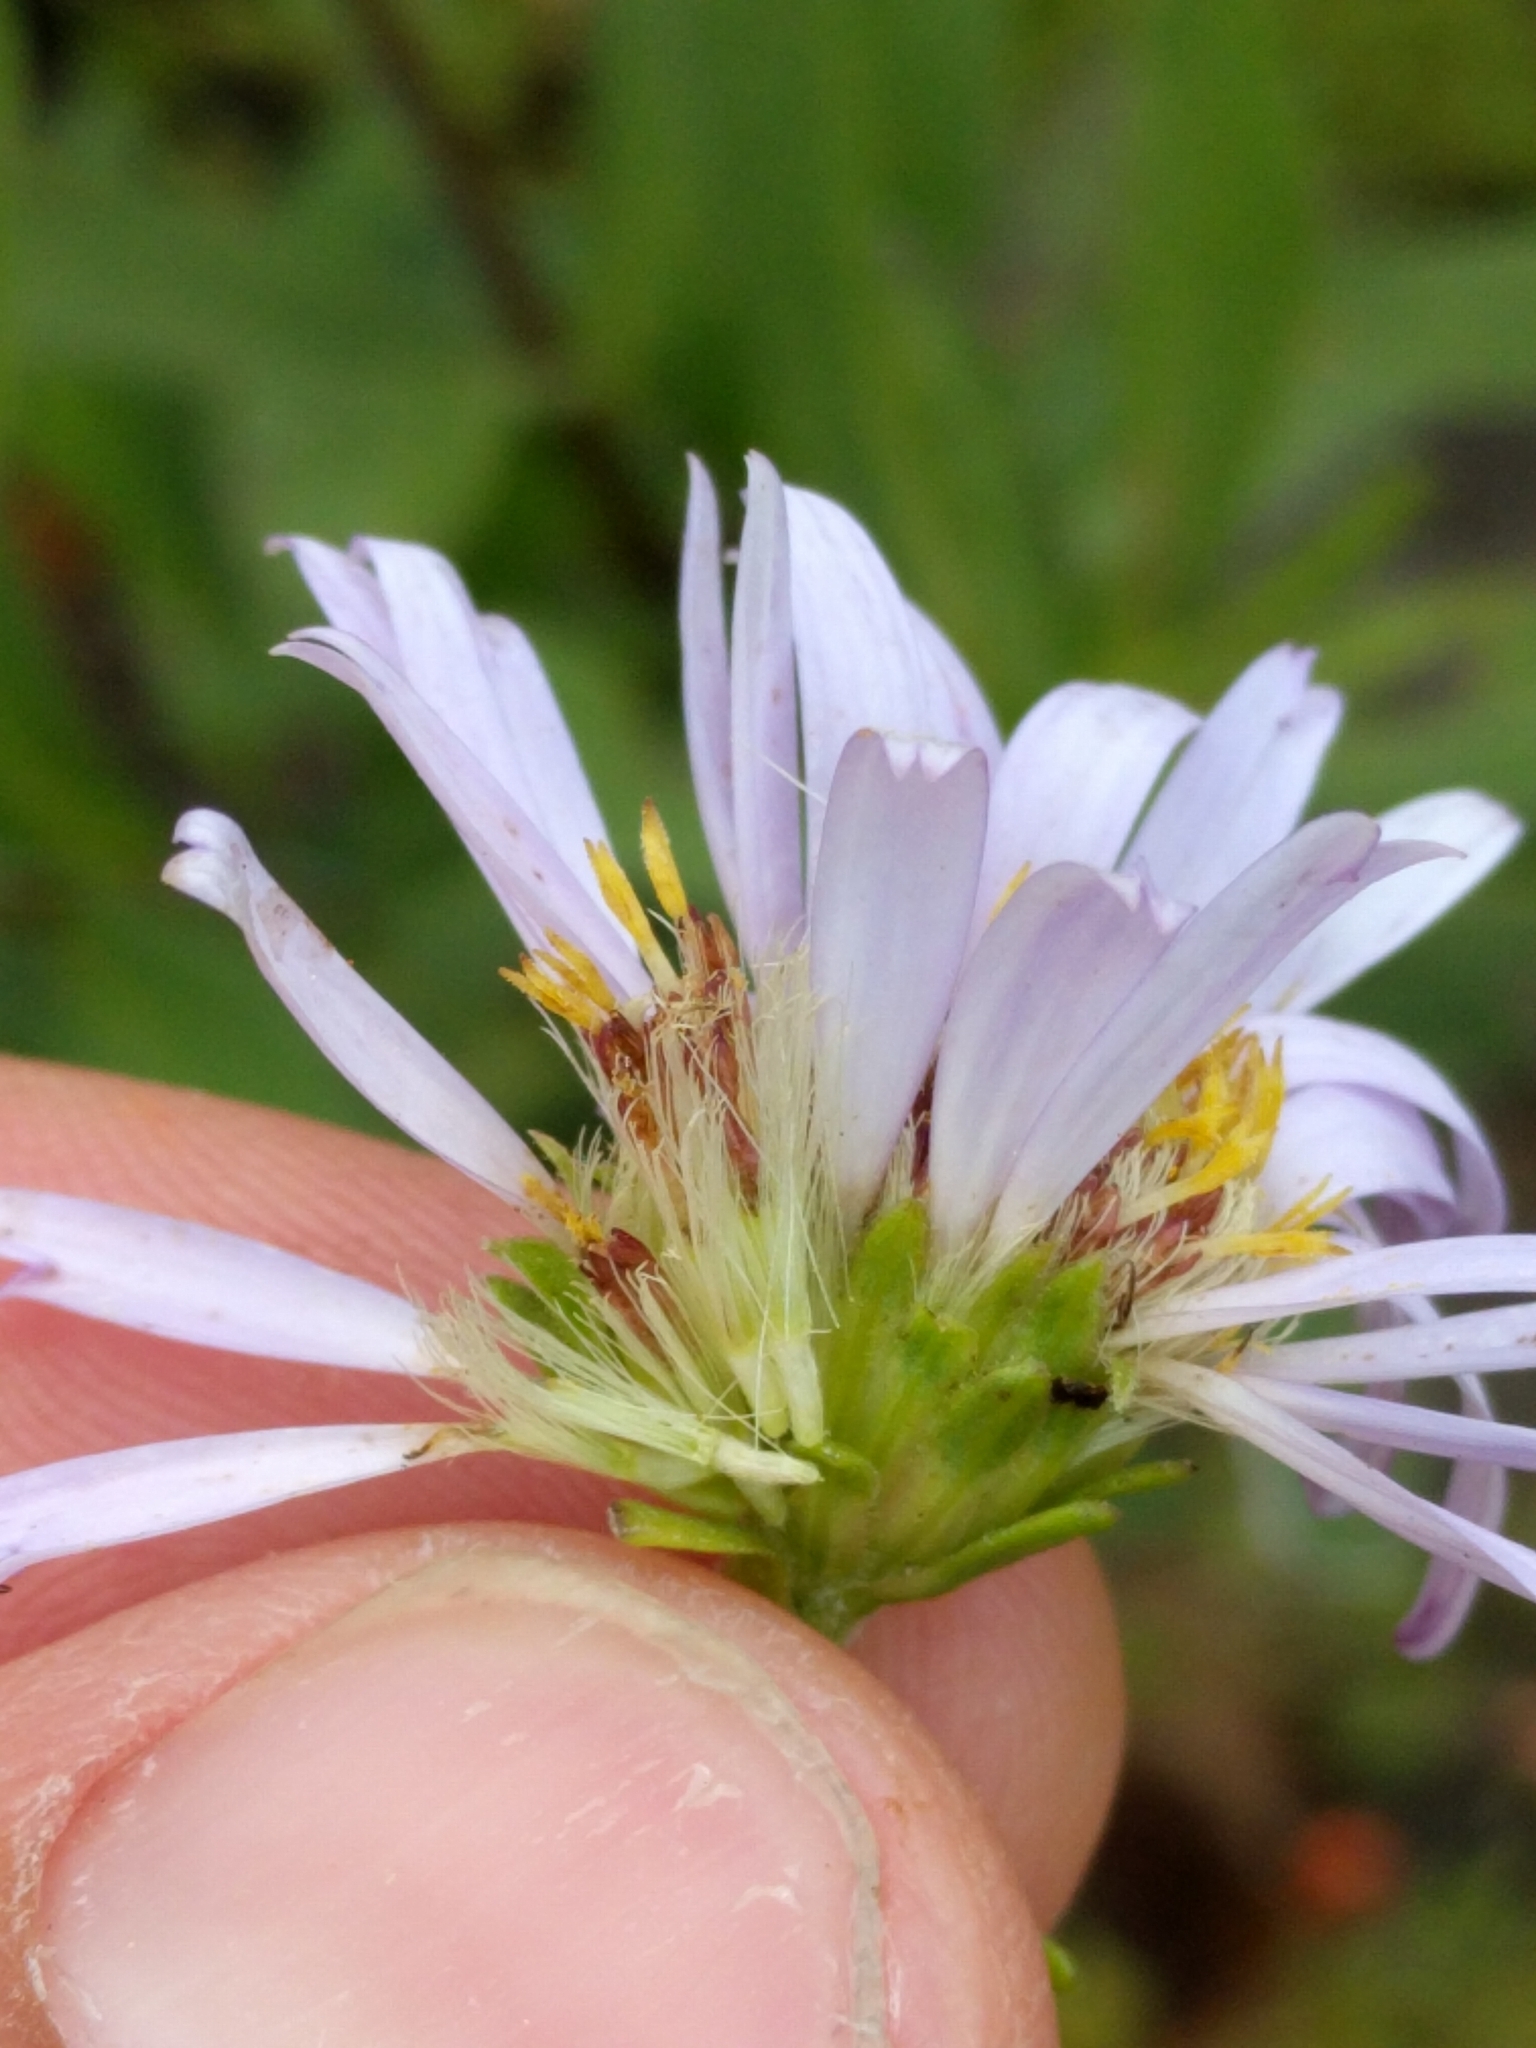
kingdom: Plantae
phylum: Tracheophyta
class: Magnoliopsida
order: Asterales
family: Asteraceae
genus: Symphyotrichum
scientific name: Symphyotrichum chilense
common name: Pacific aster
